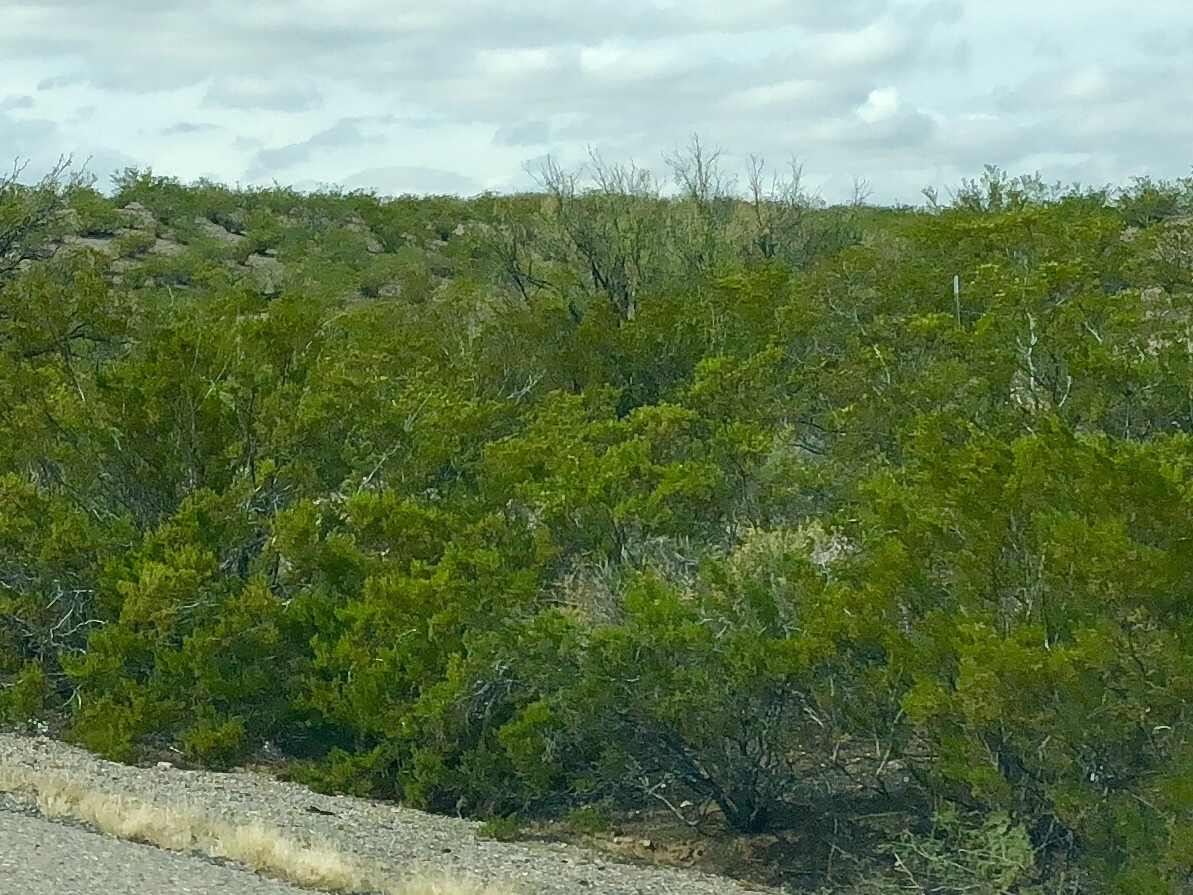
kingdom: Plantae
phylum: Tracheophyta
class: Magnoliopsida
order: Zygophyllales
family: Zygophyllaceae
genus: Larrea
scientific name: Larrea tridentata
